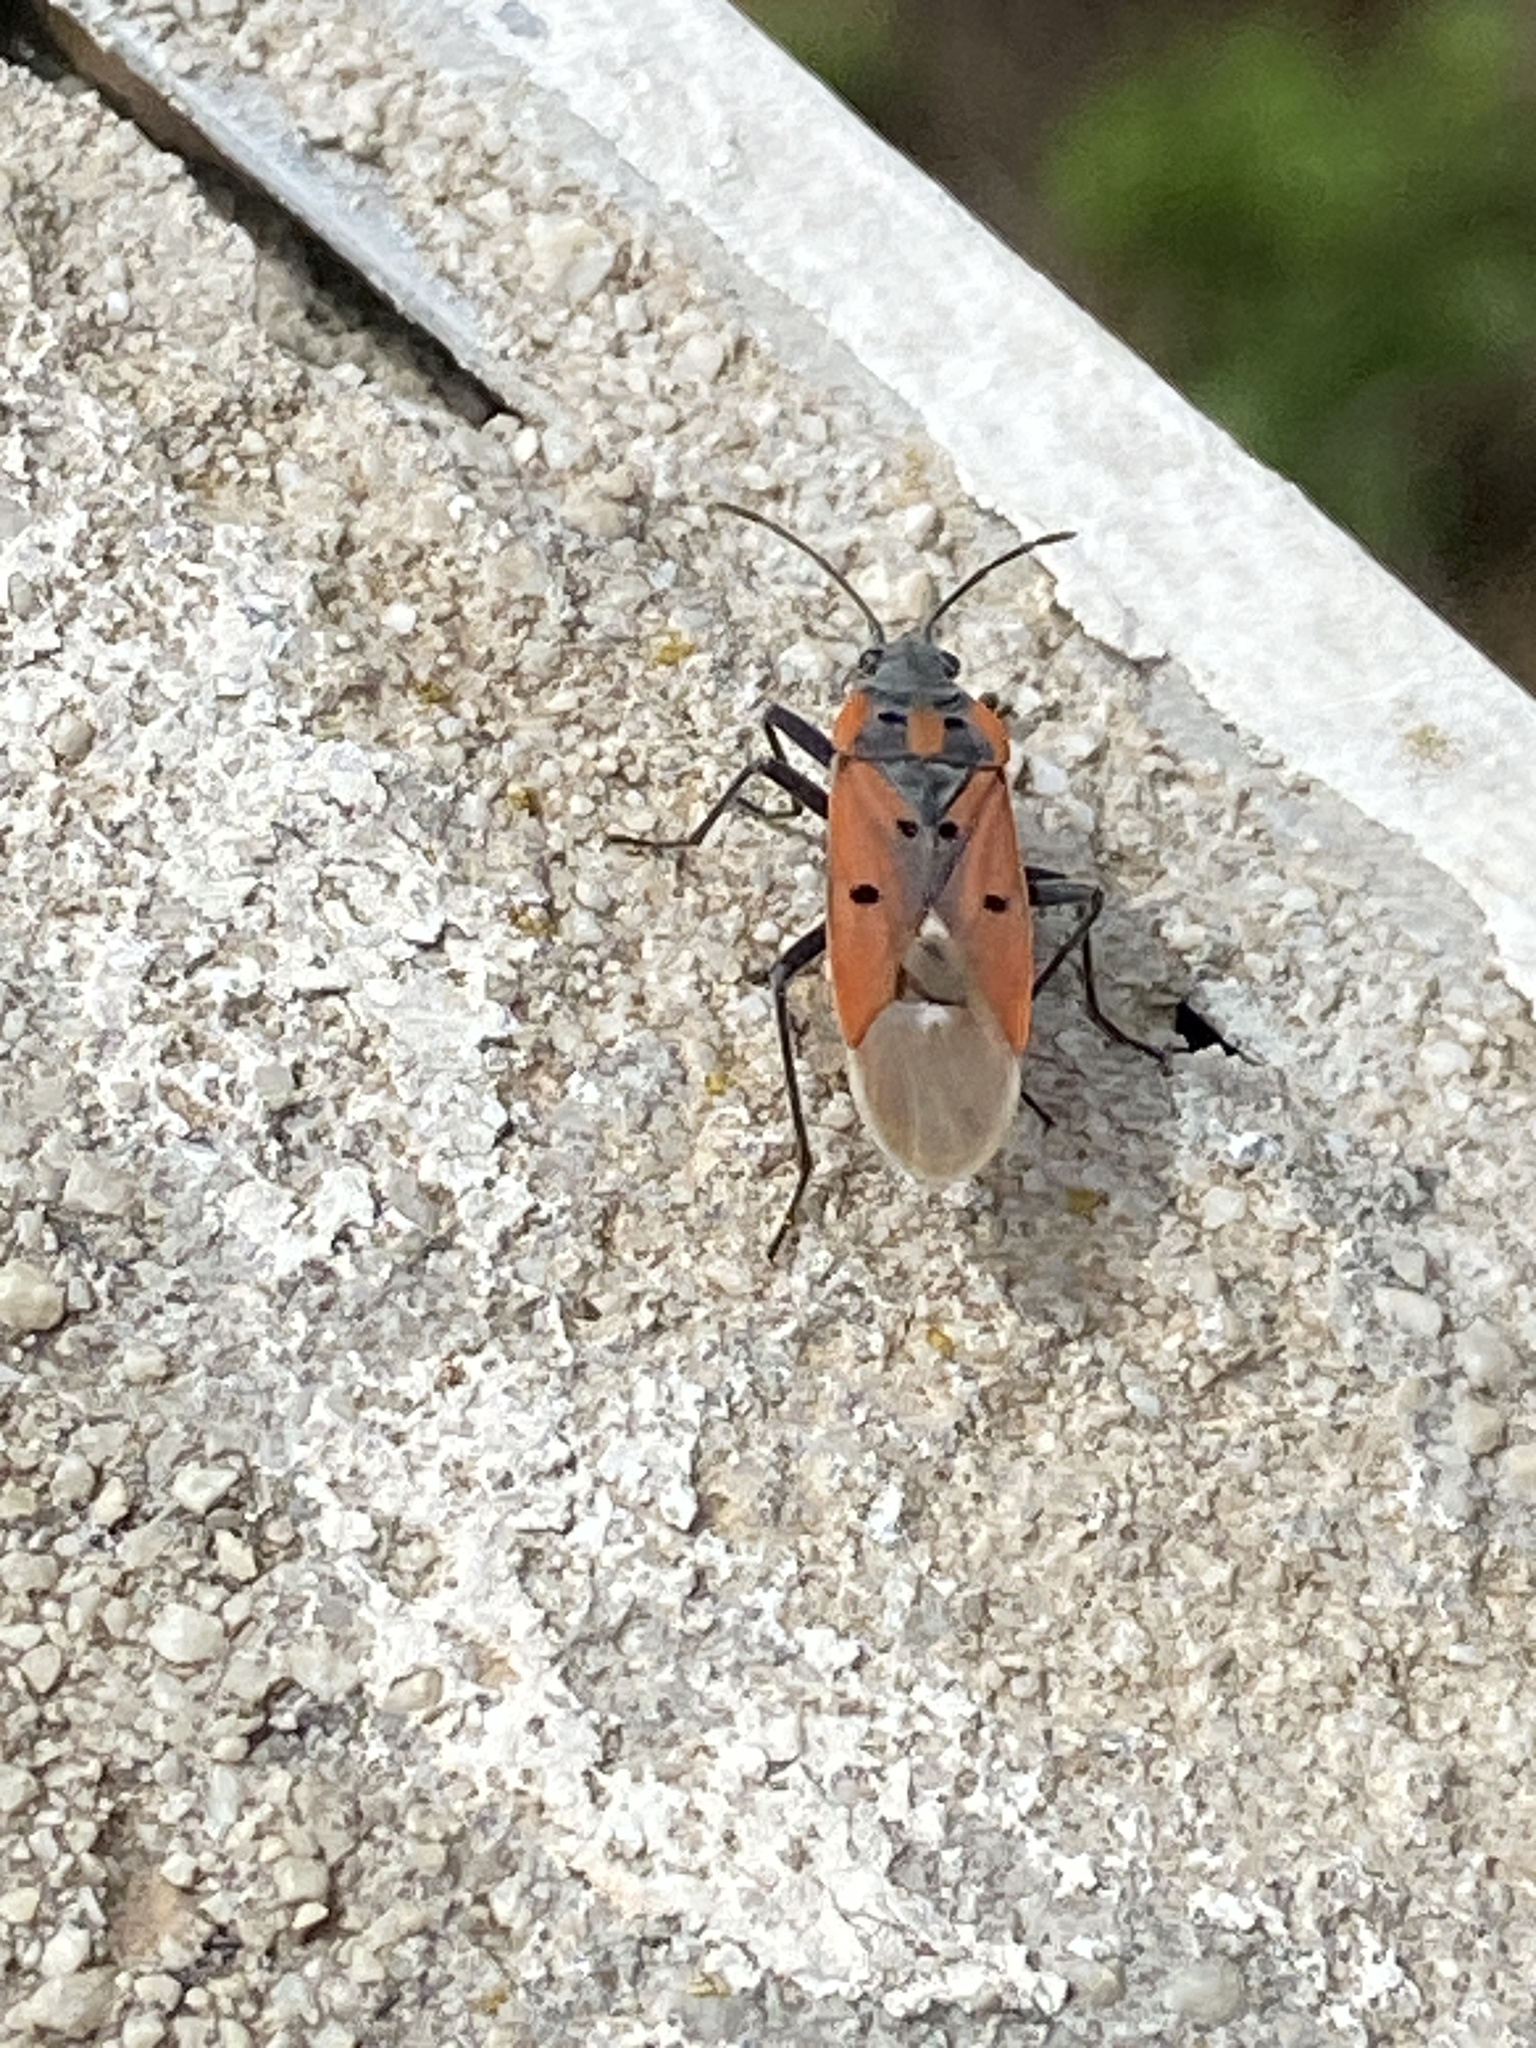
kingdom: Animalia
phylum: Arthropoda
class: Insecta
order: Hemiptera
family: Lygaeidae
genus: Lygaeus
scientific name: Lygaeus creticus
